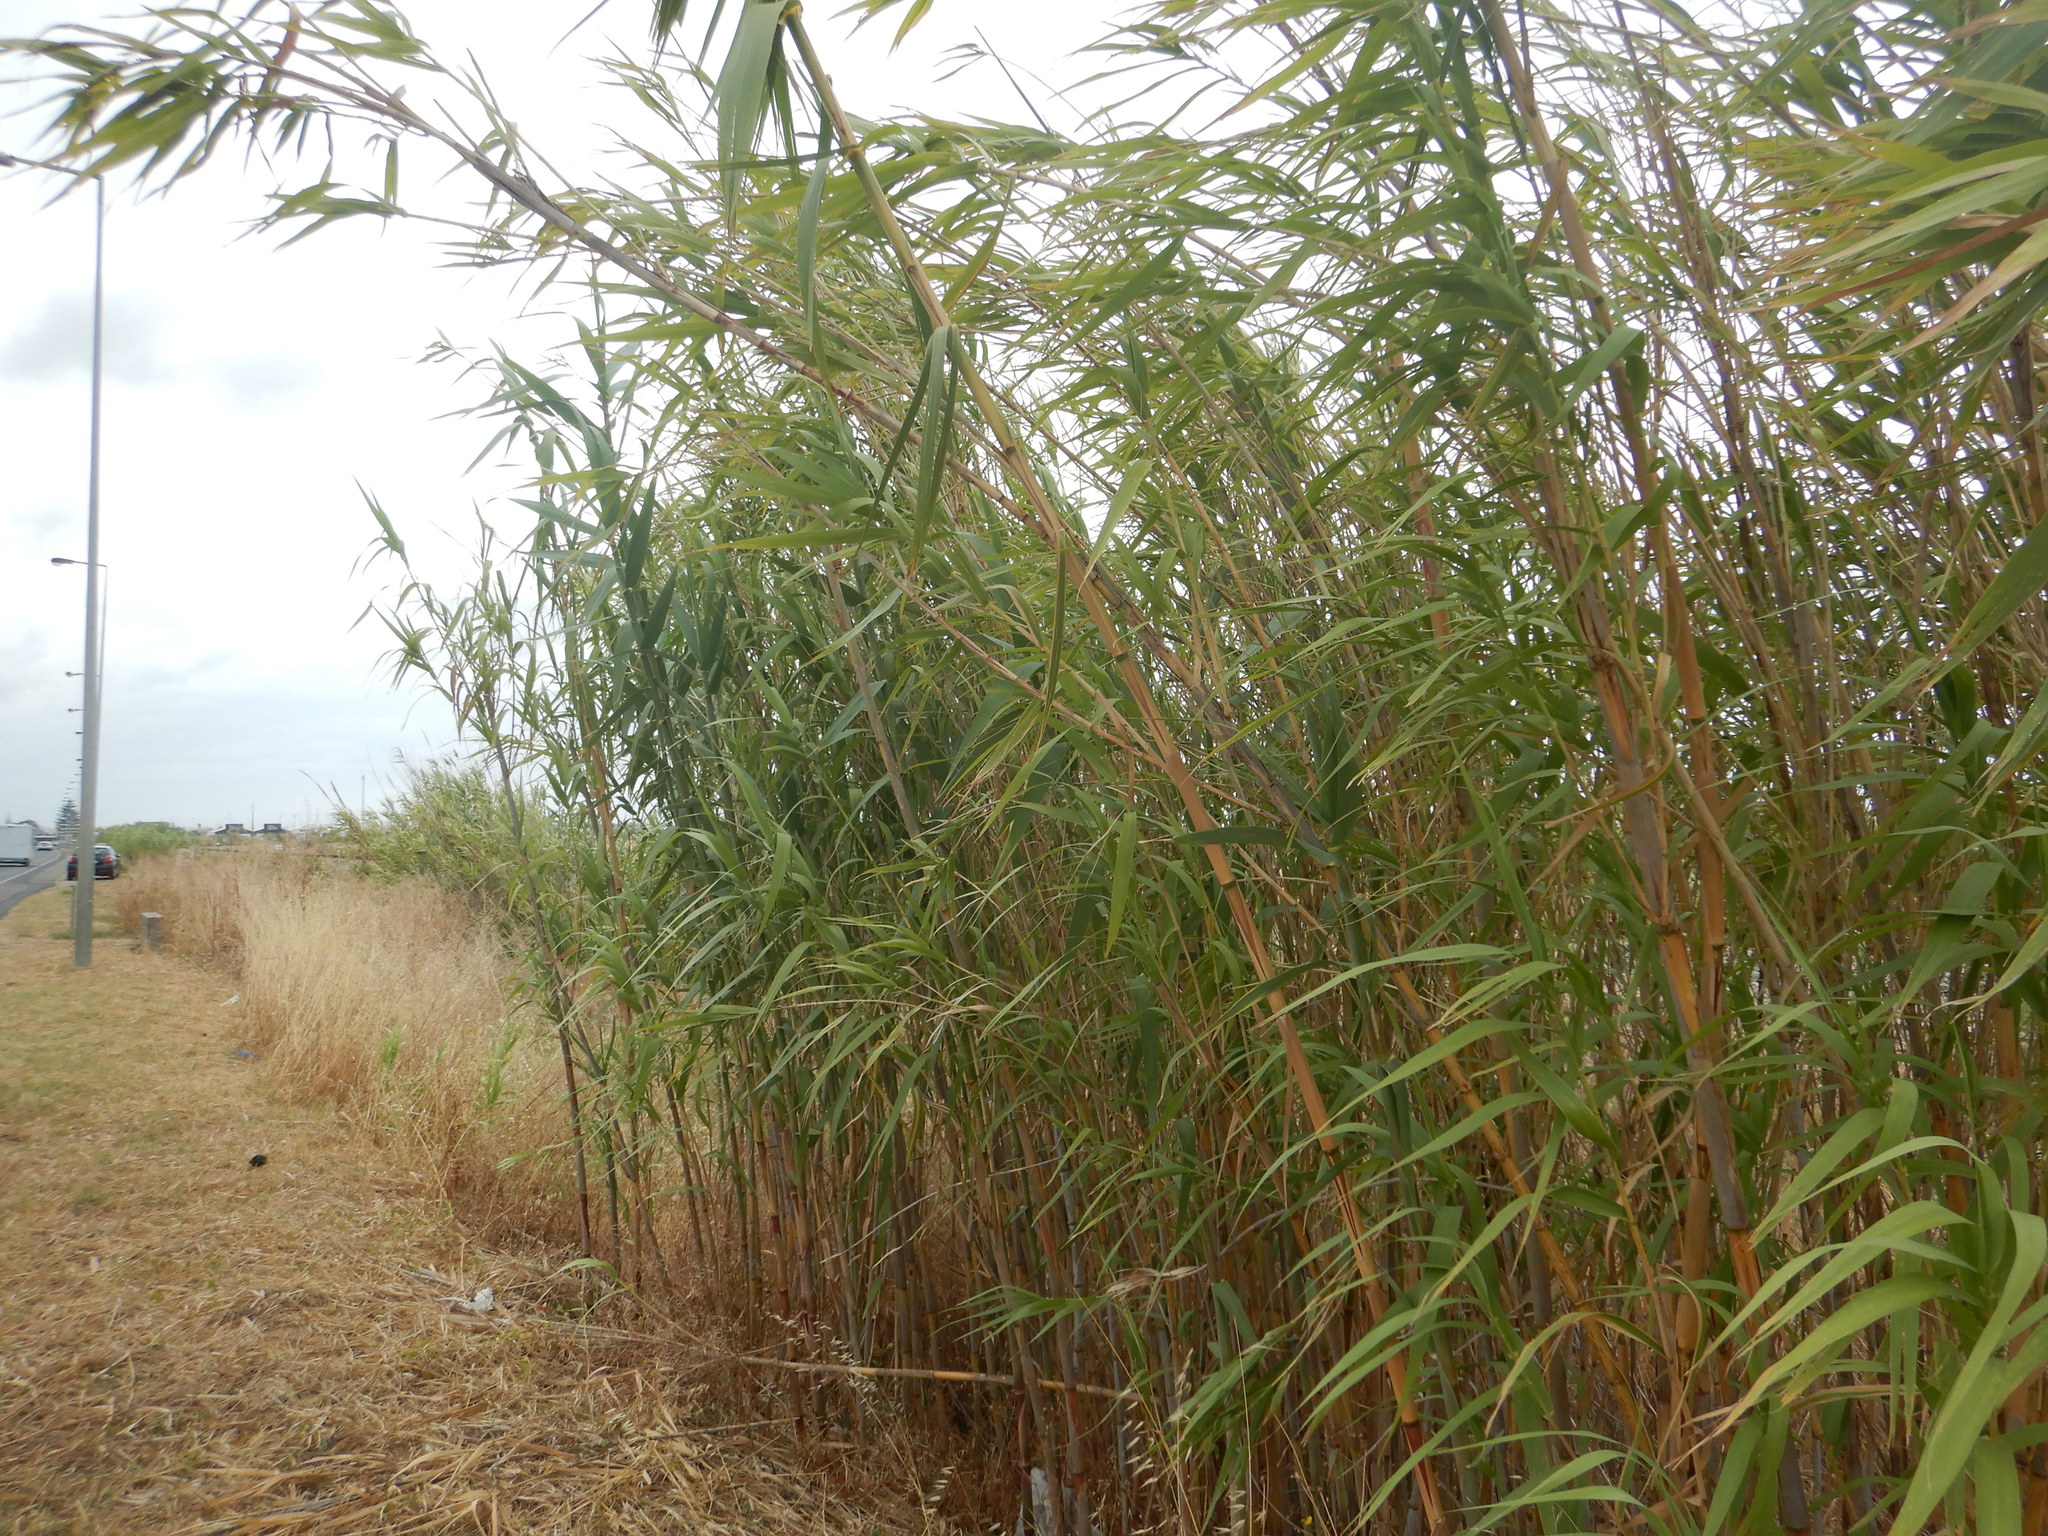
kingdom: Plantae
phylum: Tracheophyta
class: Liliopsida
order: Poales
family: Poaceae
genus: Arundo
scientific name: Arundo donax
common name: Giant reed
